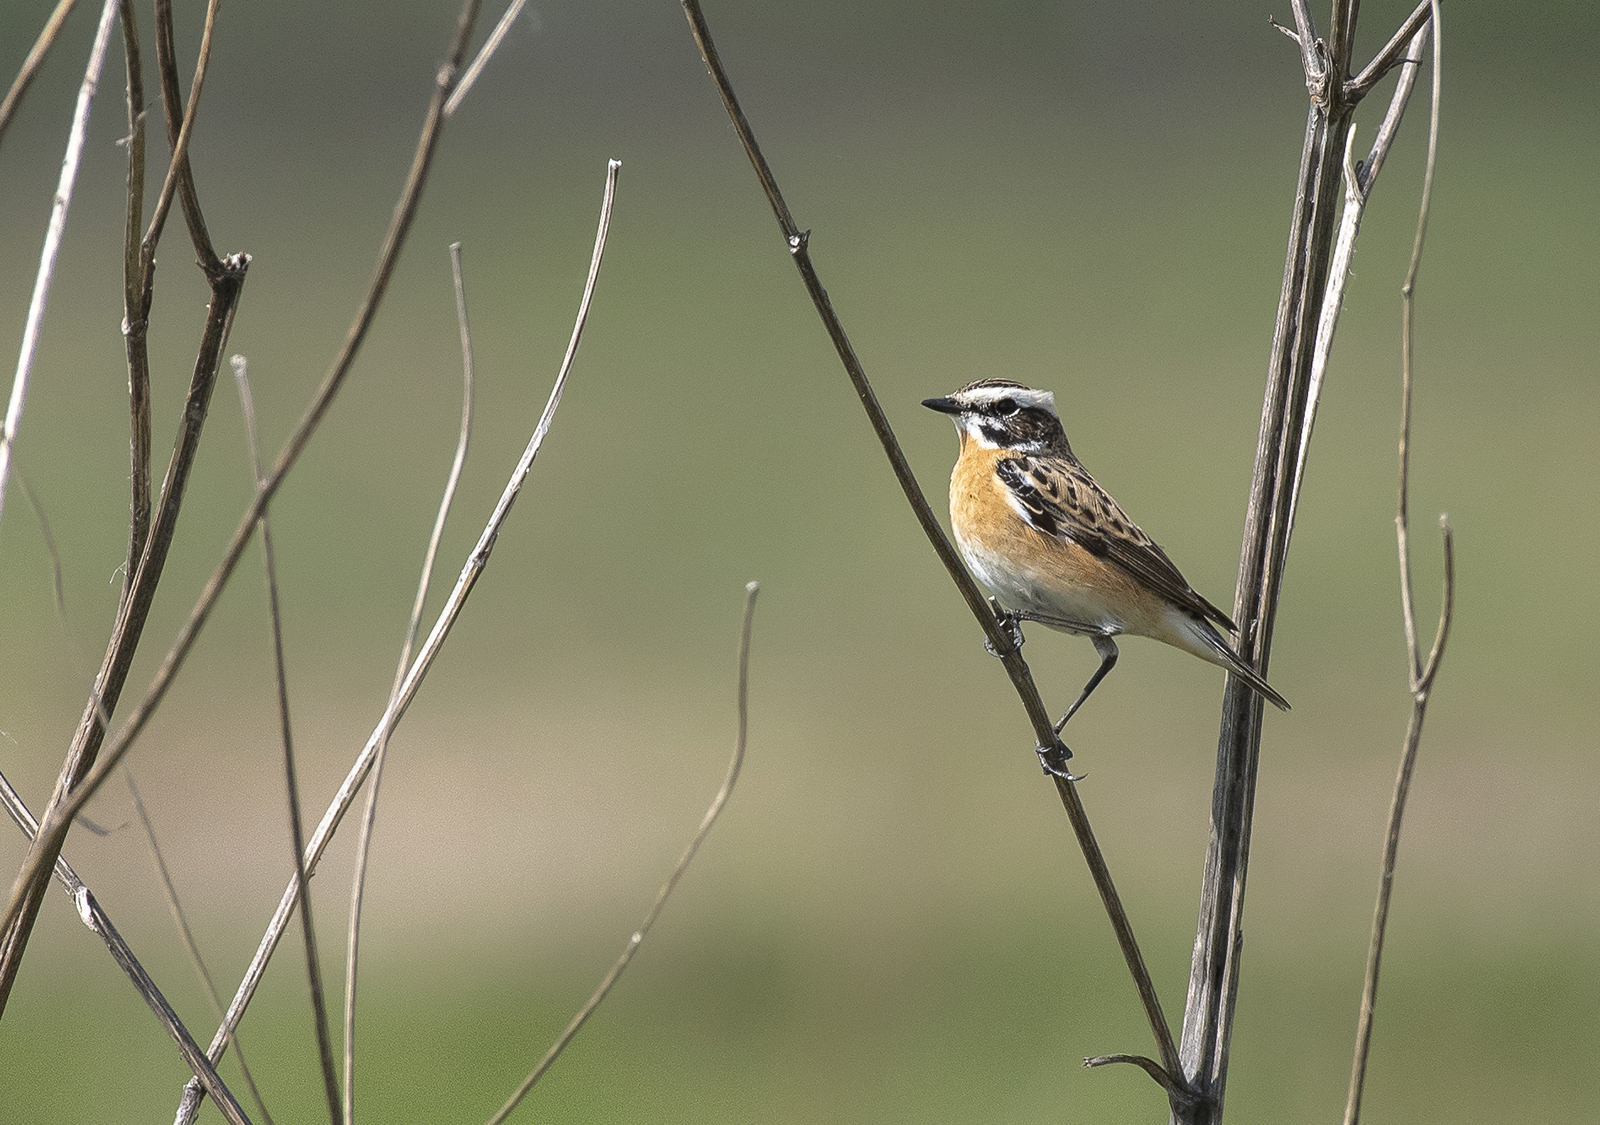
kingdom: Animalia
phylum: Chordata
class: Aves
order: Passeriformes
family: Muscicapidae
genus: Saxicola
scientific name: Saxicola rubetra
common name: Whinchat
